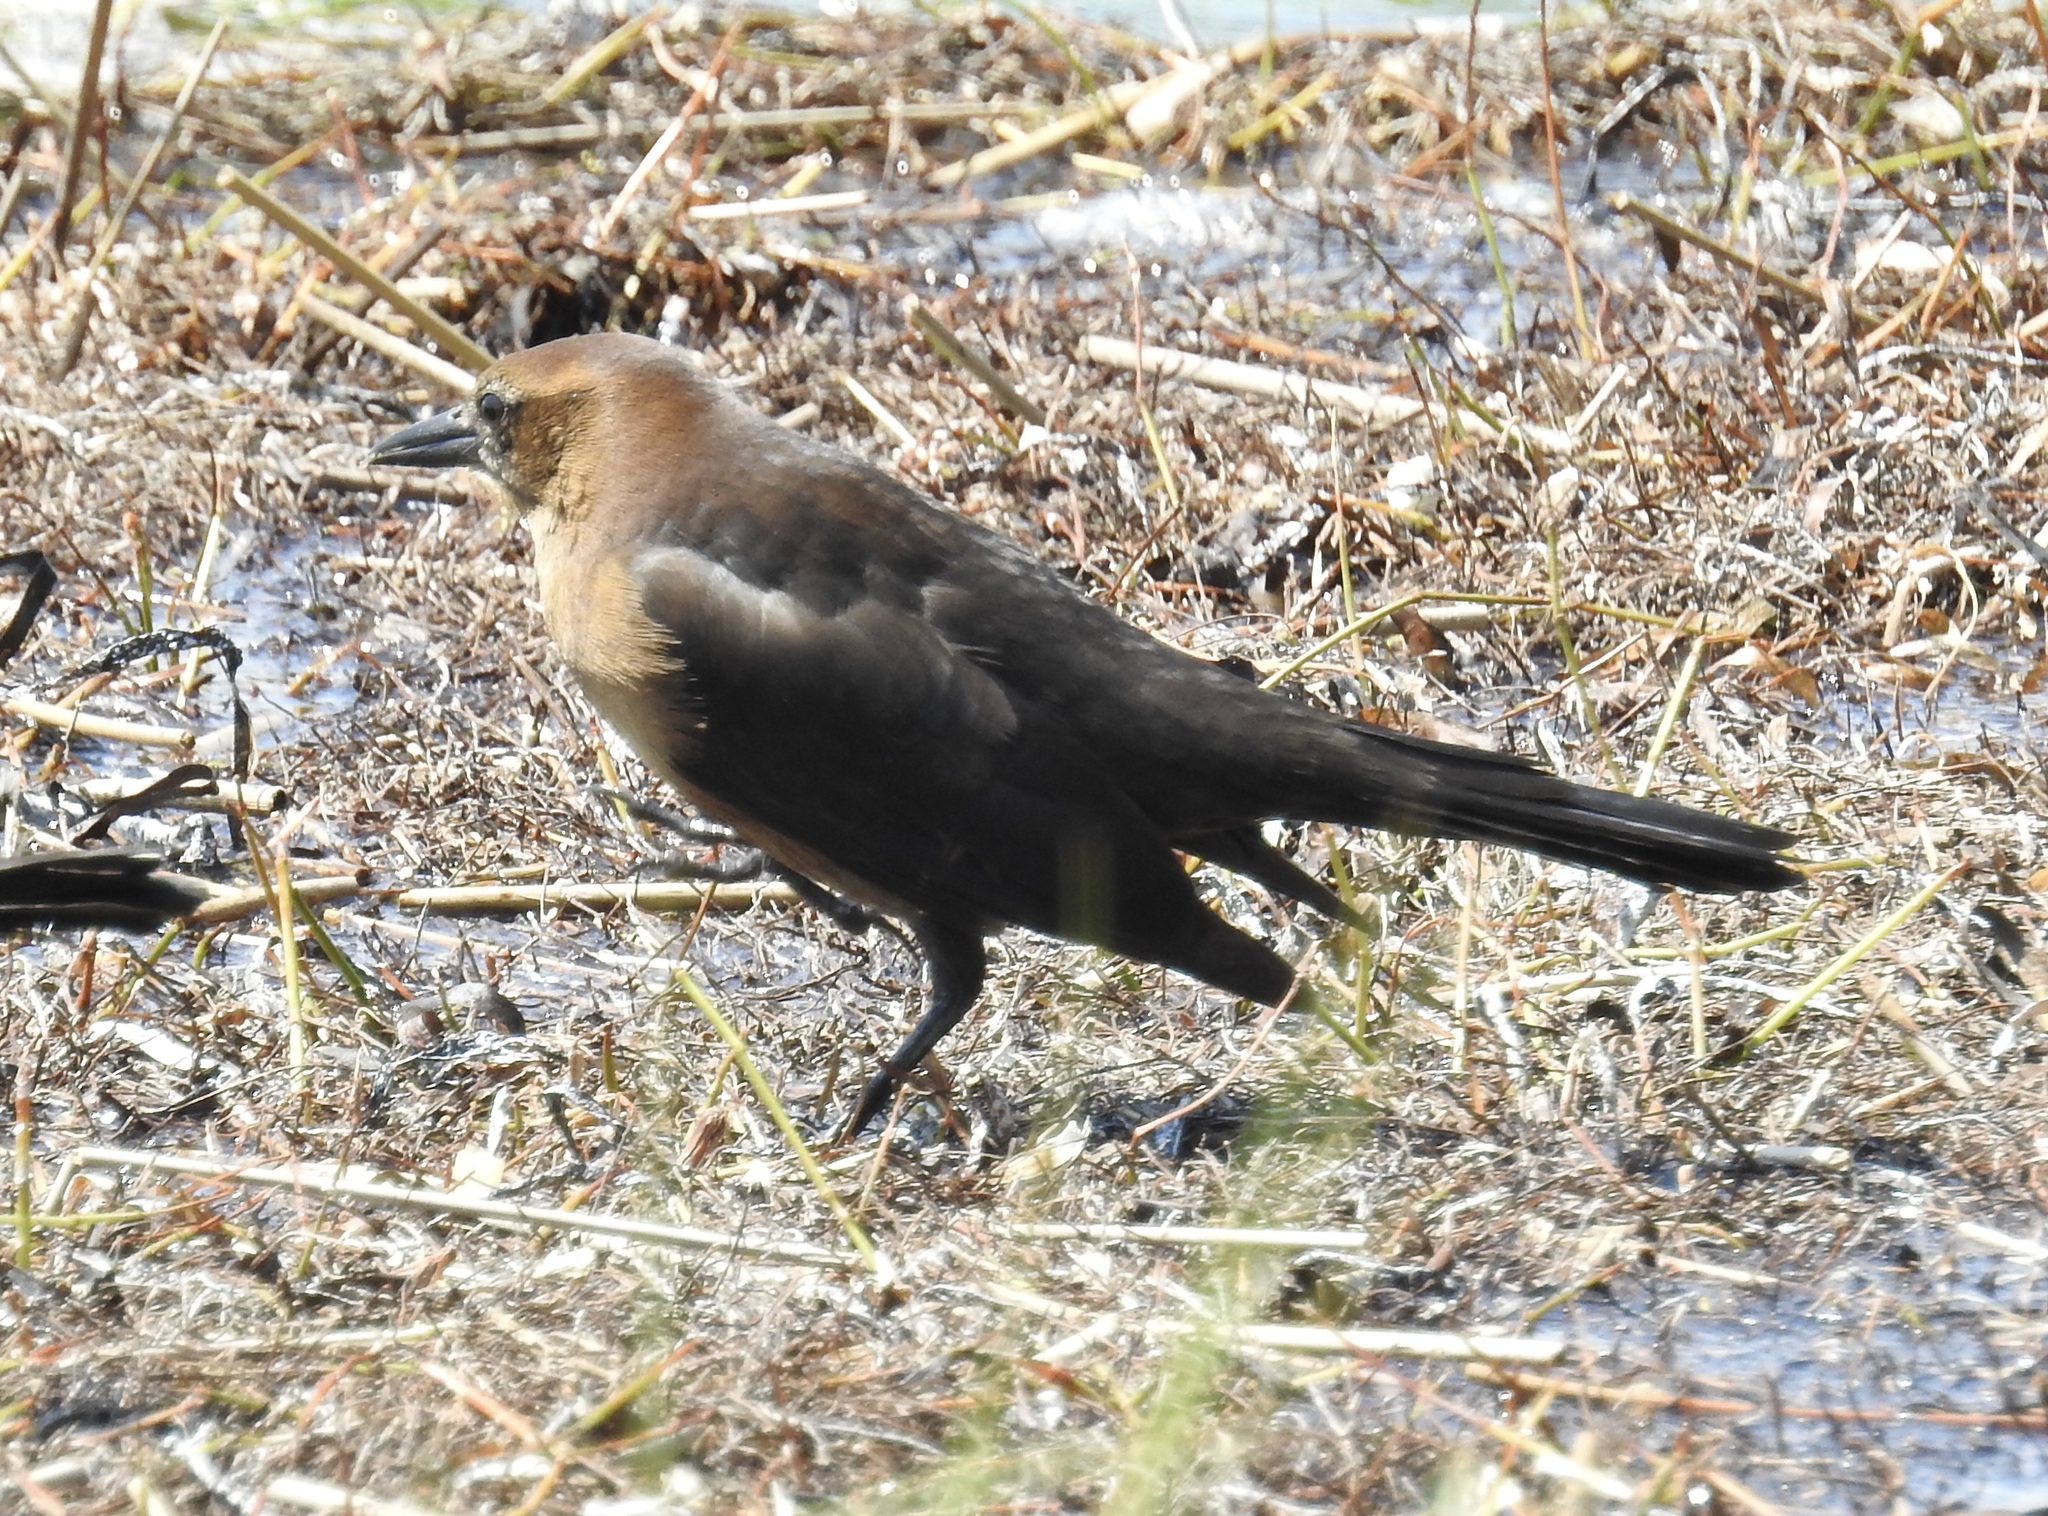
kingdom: Animalia
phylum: Chordata
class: Aves
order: Passeriformes
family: Icteridae
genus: Quiscalus
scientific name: Quiscalus major
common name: Boat-tailed grackle
